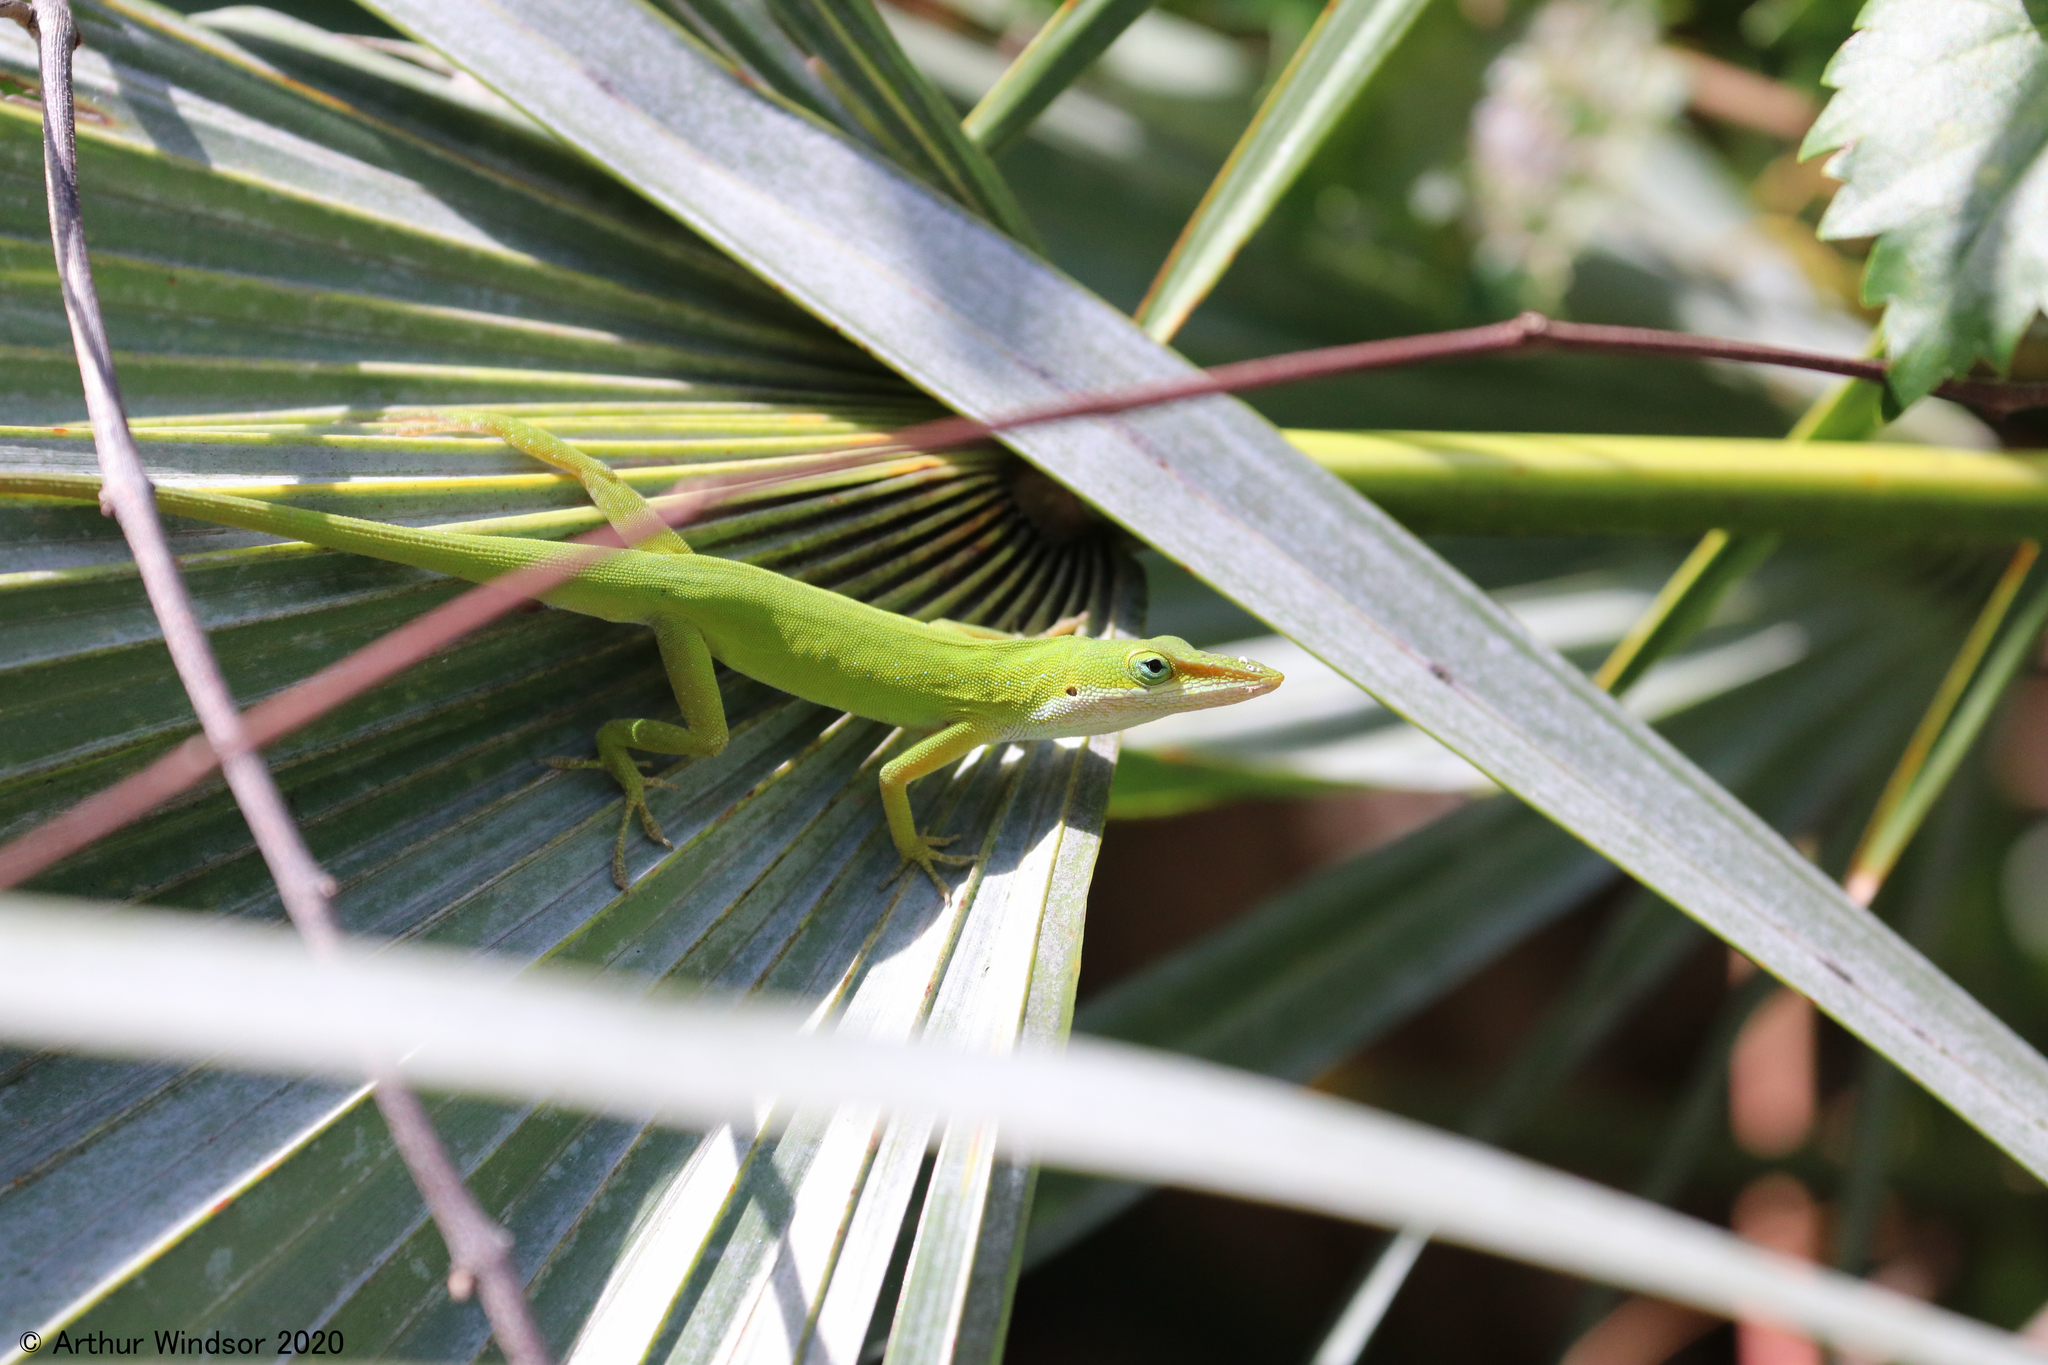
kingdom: Animalia
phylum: Chordata
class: Squamata
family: Dactyloidae
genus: Anolis
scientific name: Anolis carolinensis
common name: Green anole
